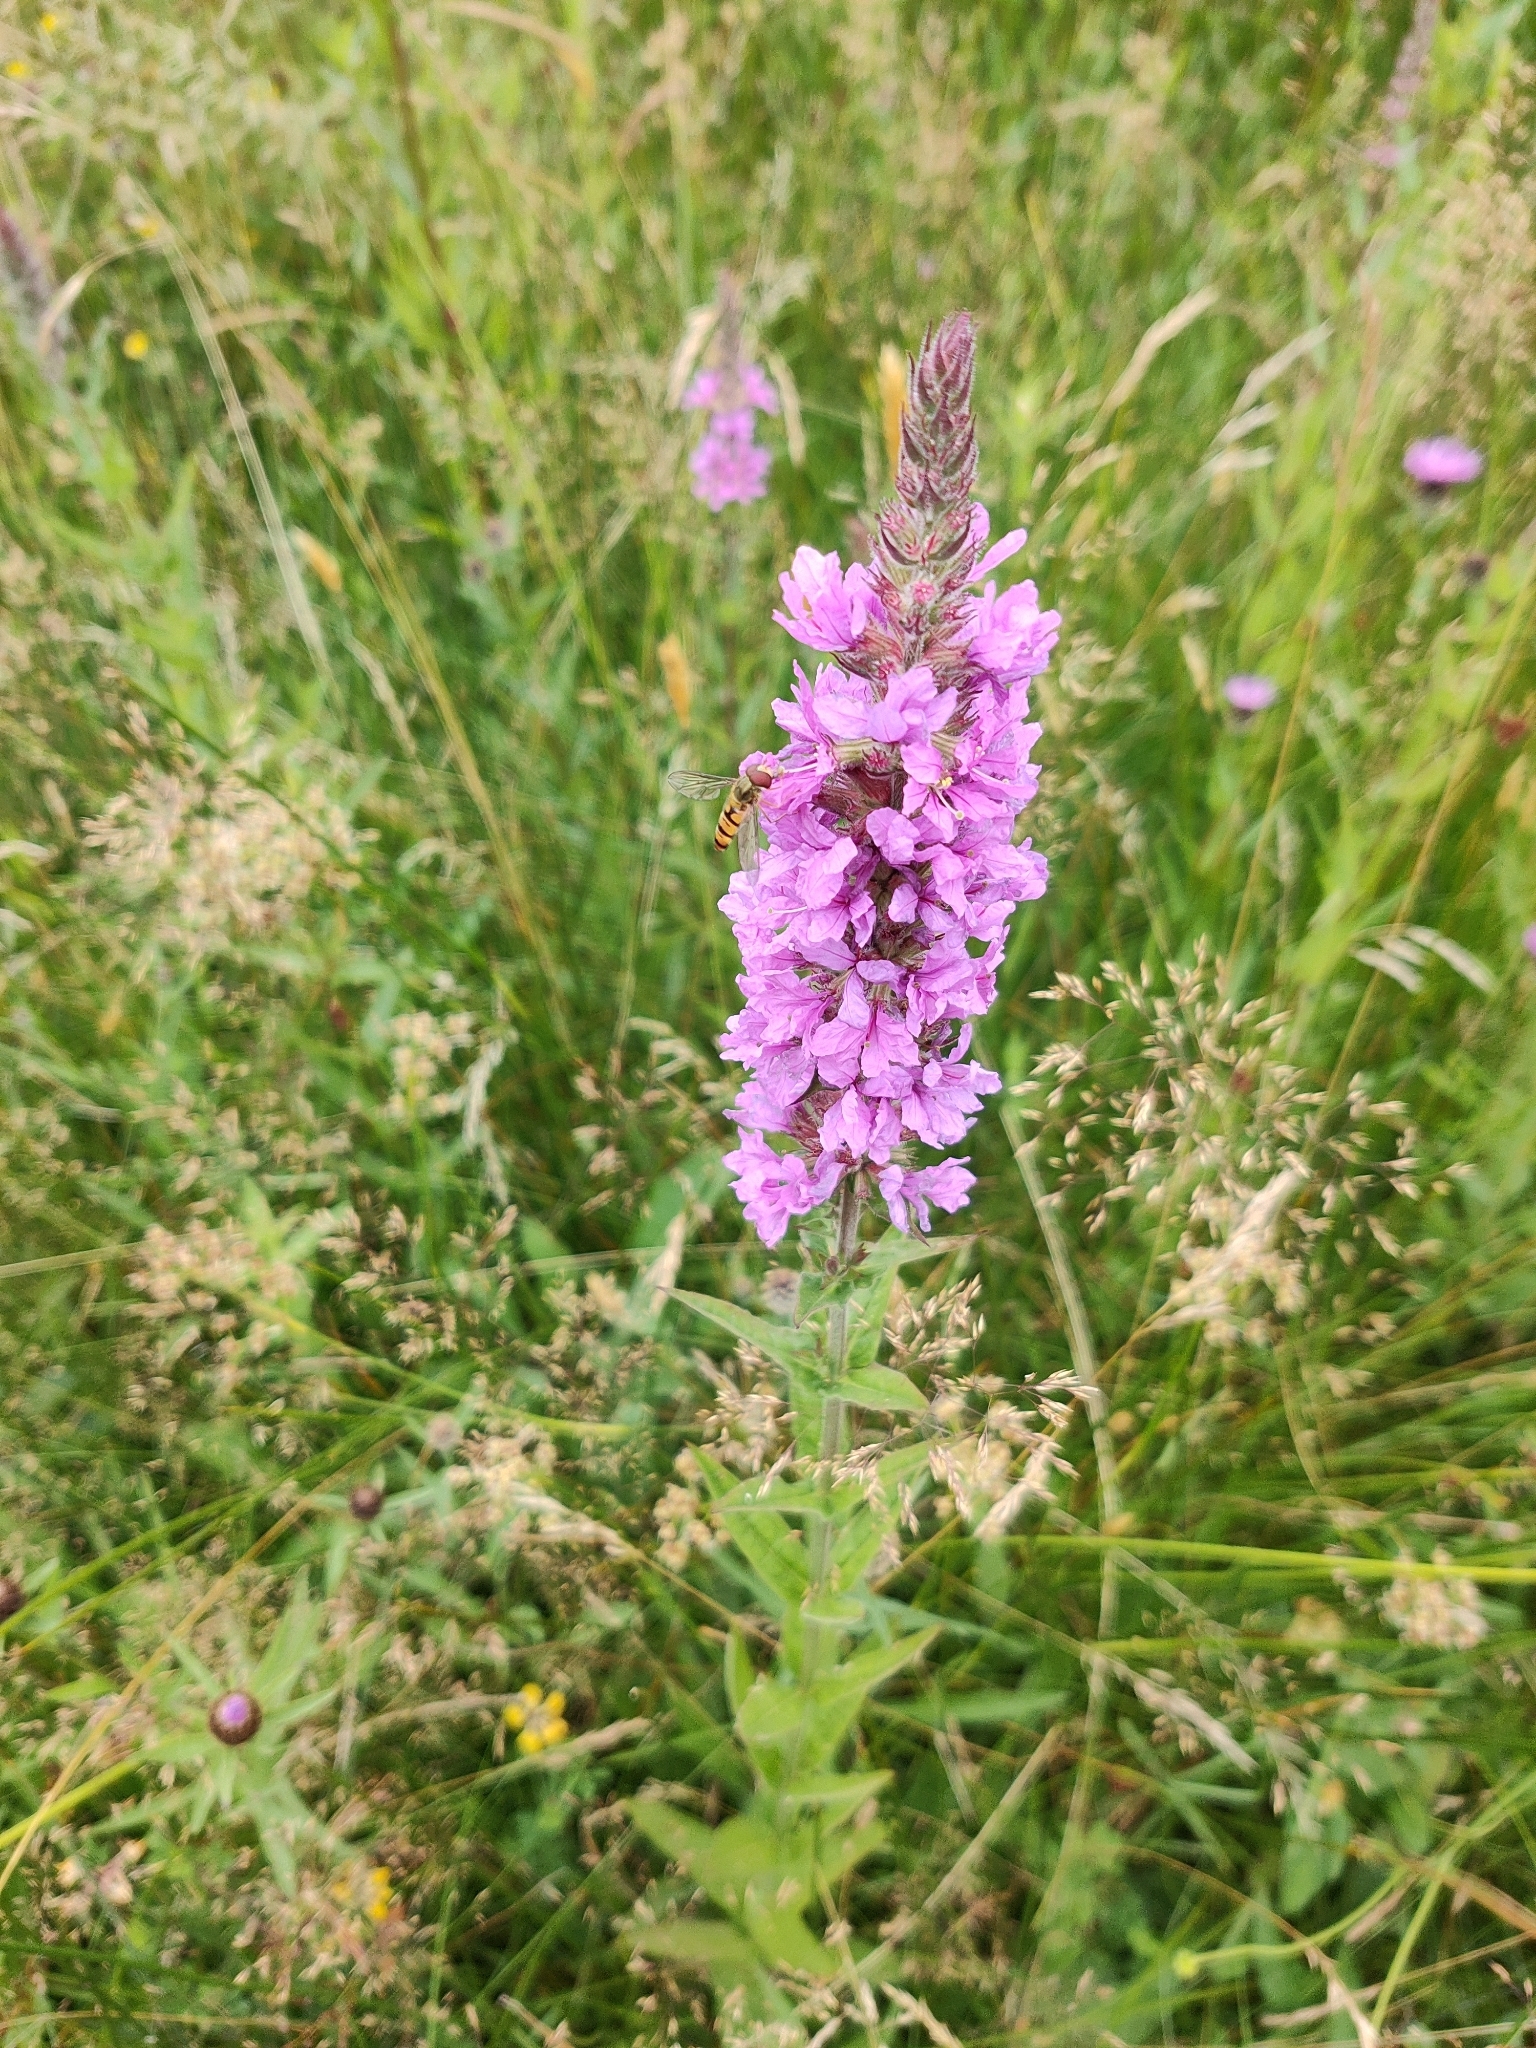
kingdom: Plantae
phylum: Tracheophyta
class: Magnoliopsida
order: Myrtales
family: Lythraceae
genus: Lythrum
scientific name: Lythrum salicaria
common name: Purple loosestrife
